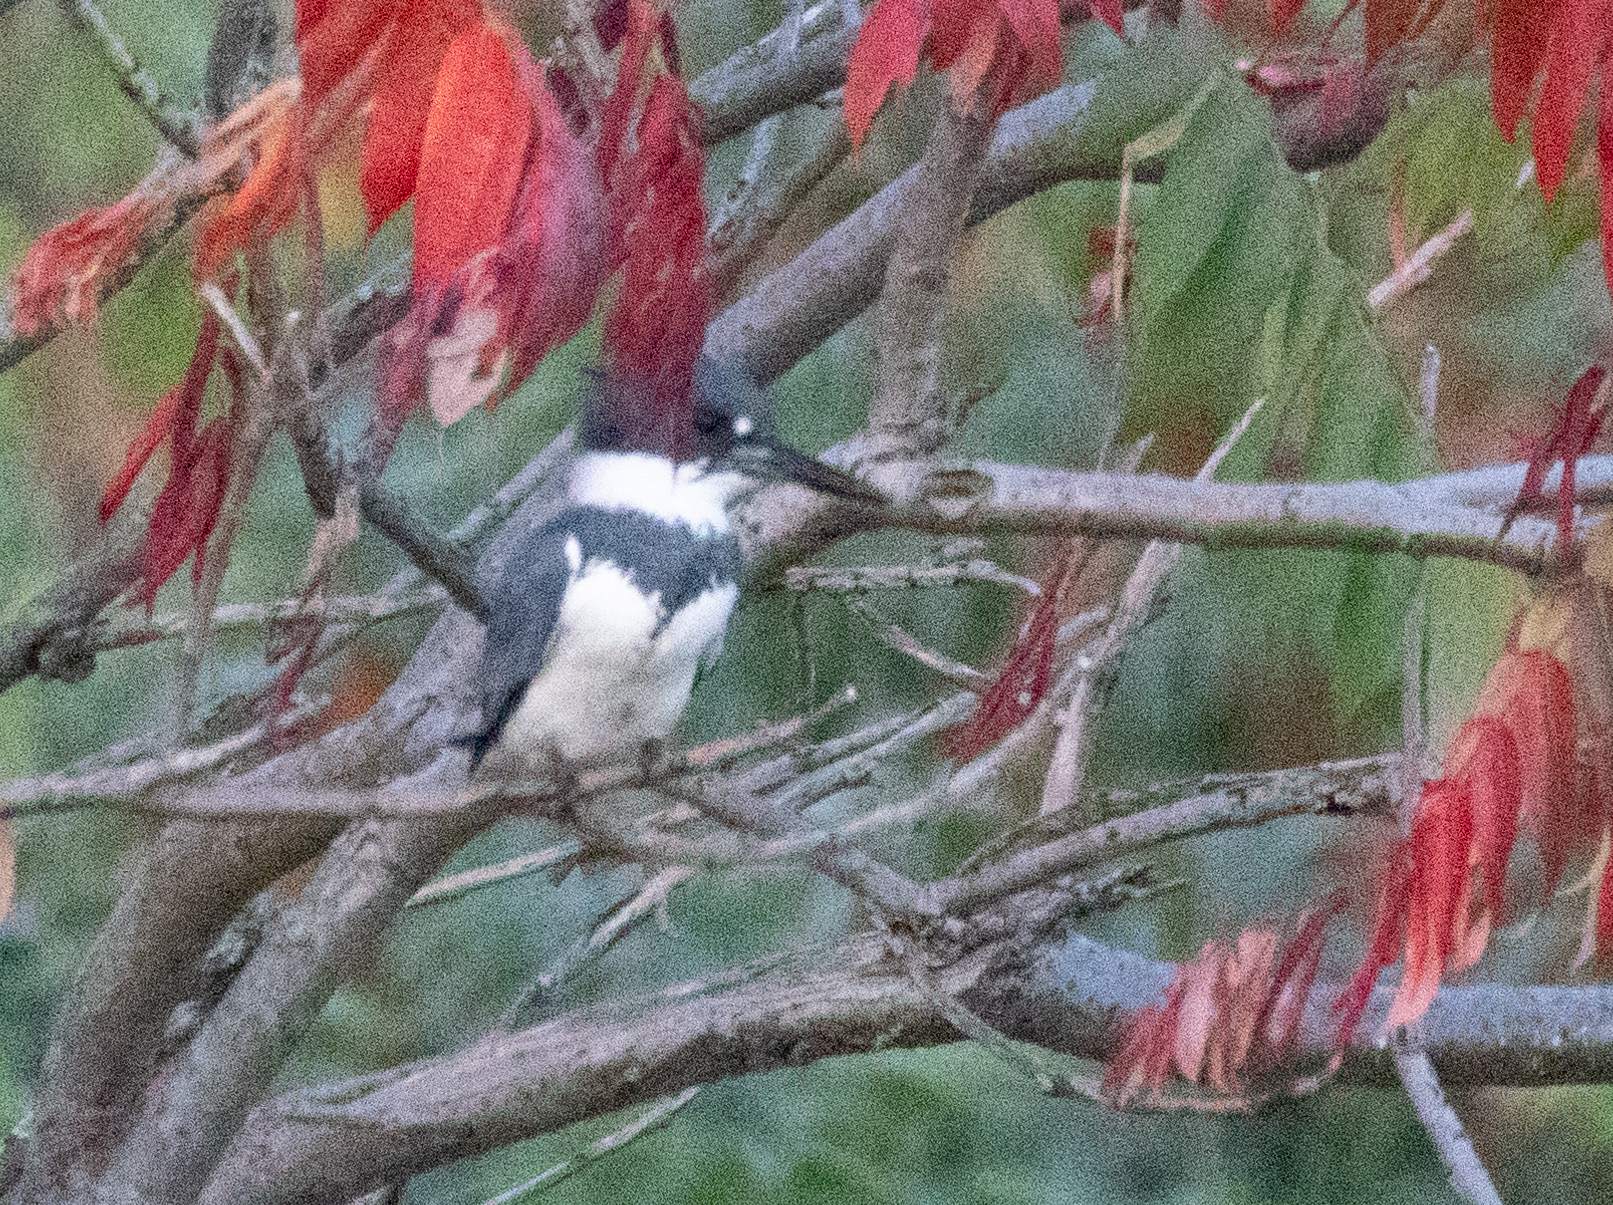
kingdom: Animalia
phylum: Chordata
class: Aves
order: Coraciiformes
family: Alcedinidae
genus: Megaceryle
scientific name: Megaceryle alcyon
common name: Belted kingfisher
